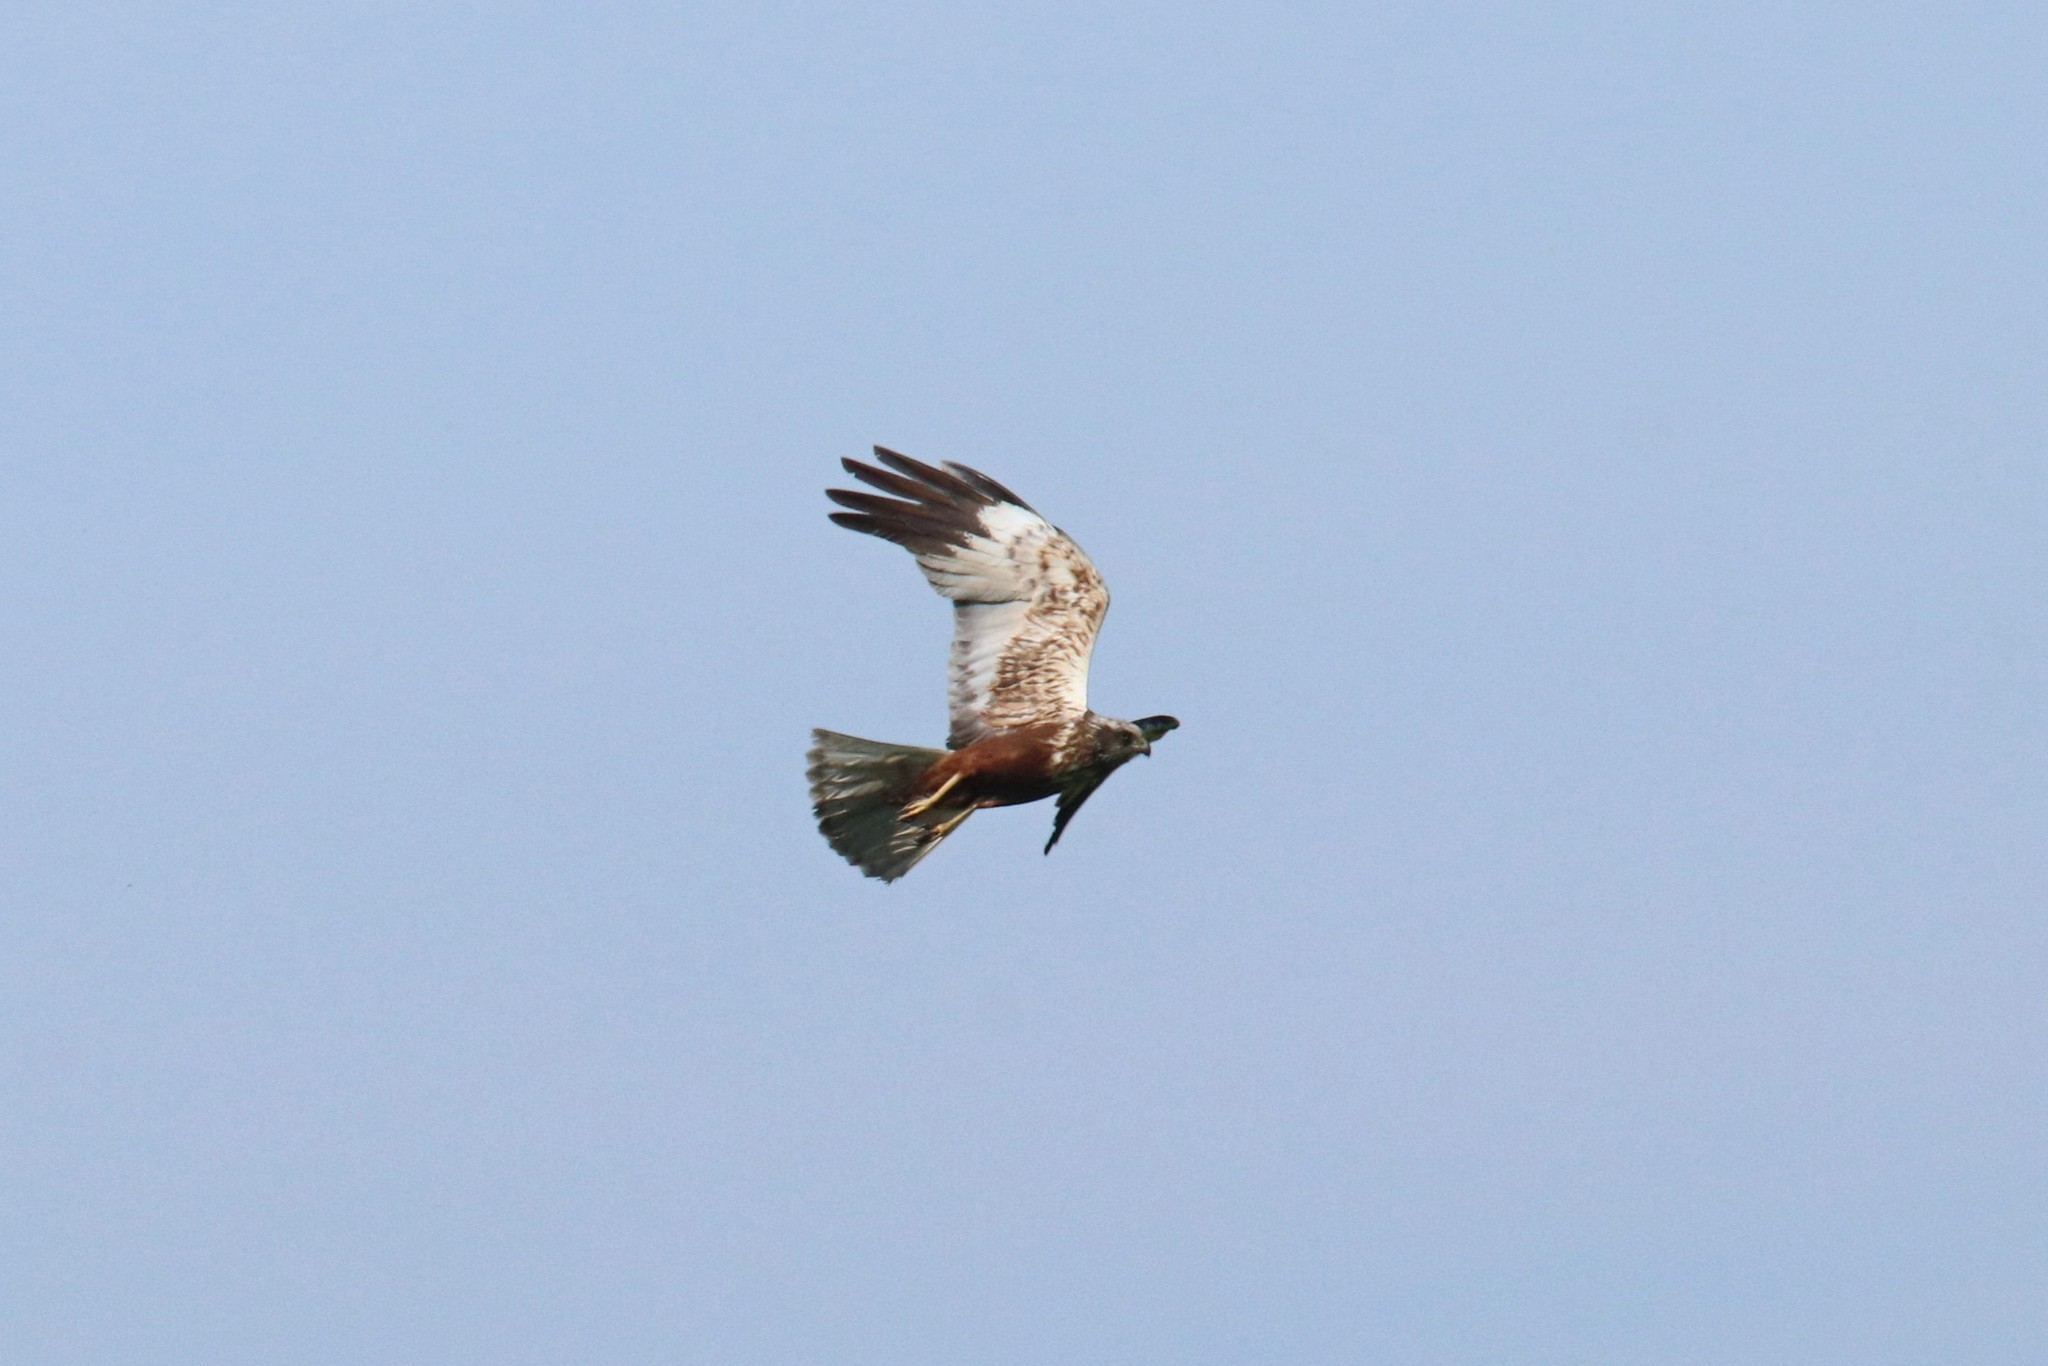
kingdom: Animalia
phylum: Chordata
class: Aves
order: Accipitriformes
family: Accipitridae
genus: Circus
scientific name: Circus aeruginosus
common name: Western marsh harrier
